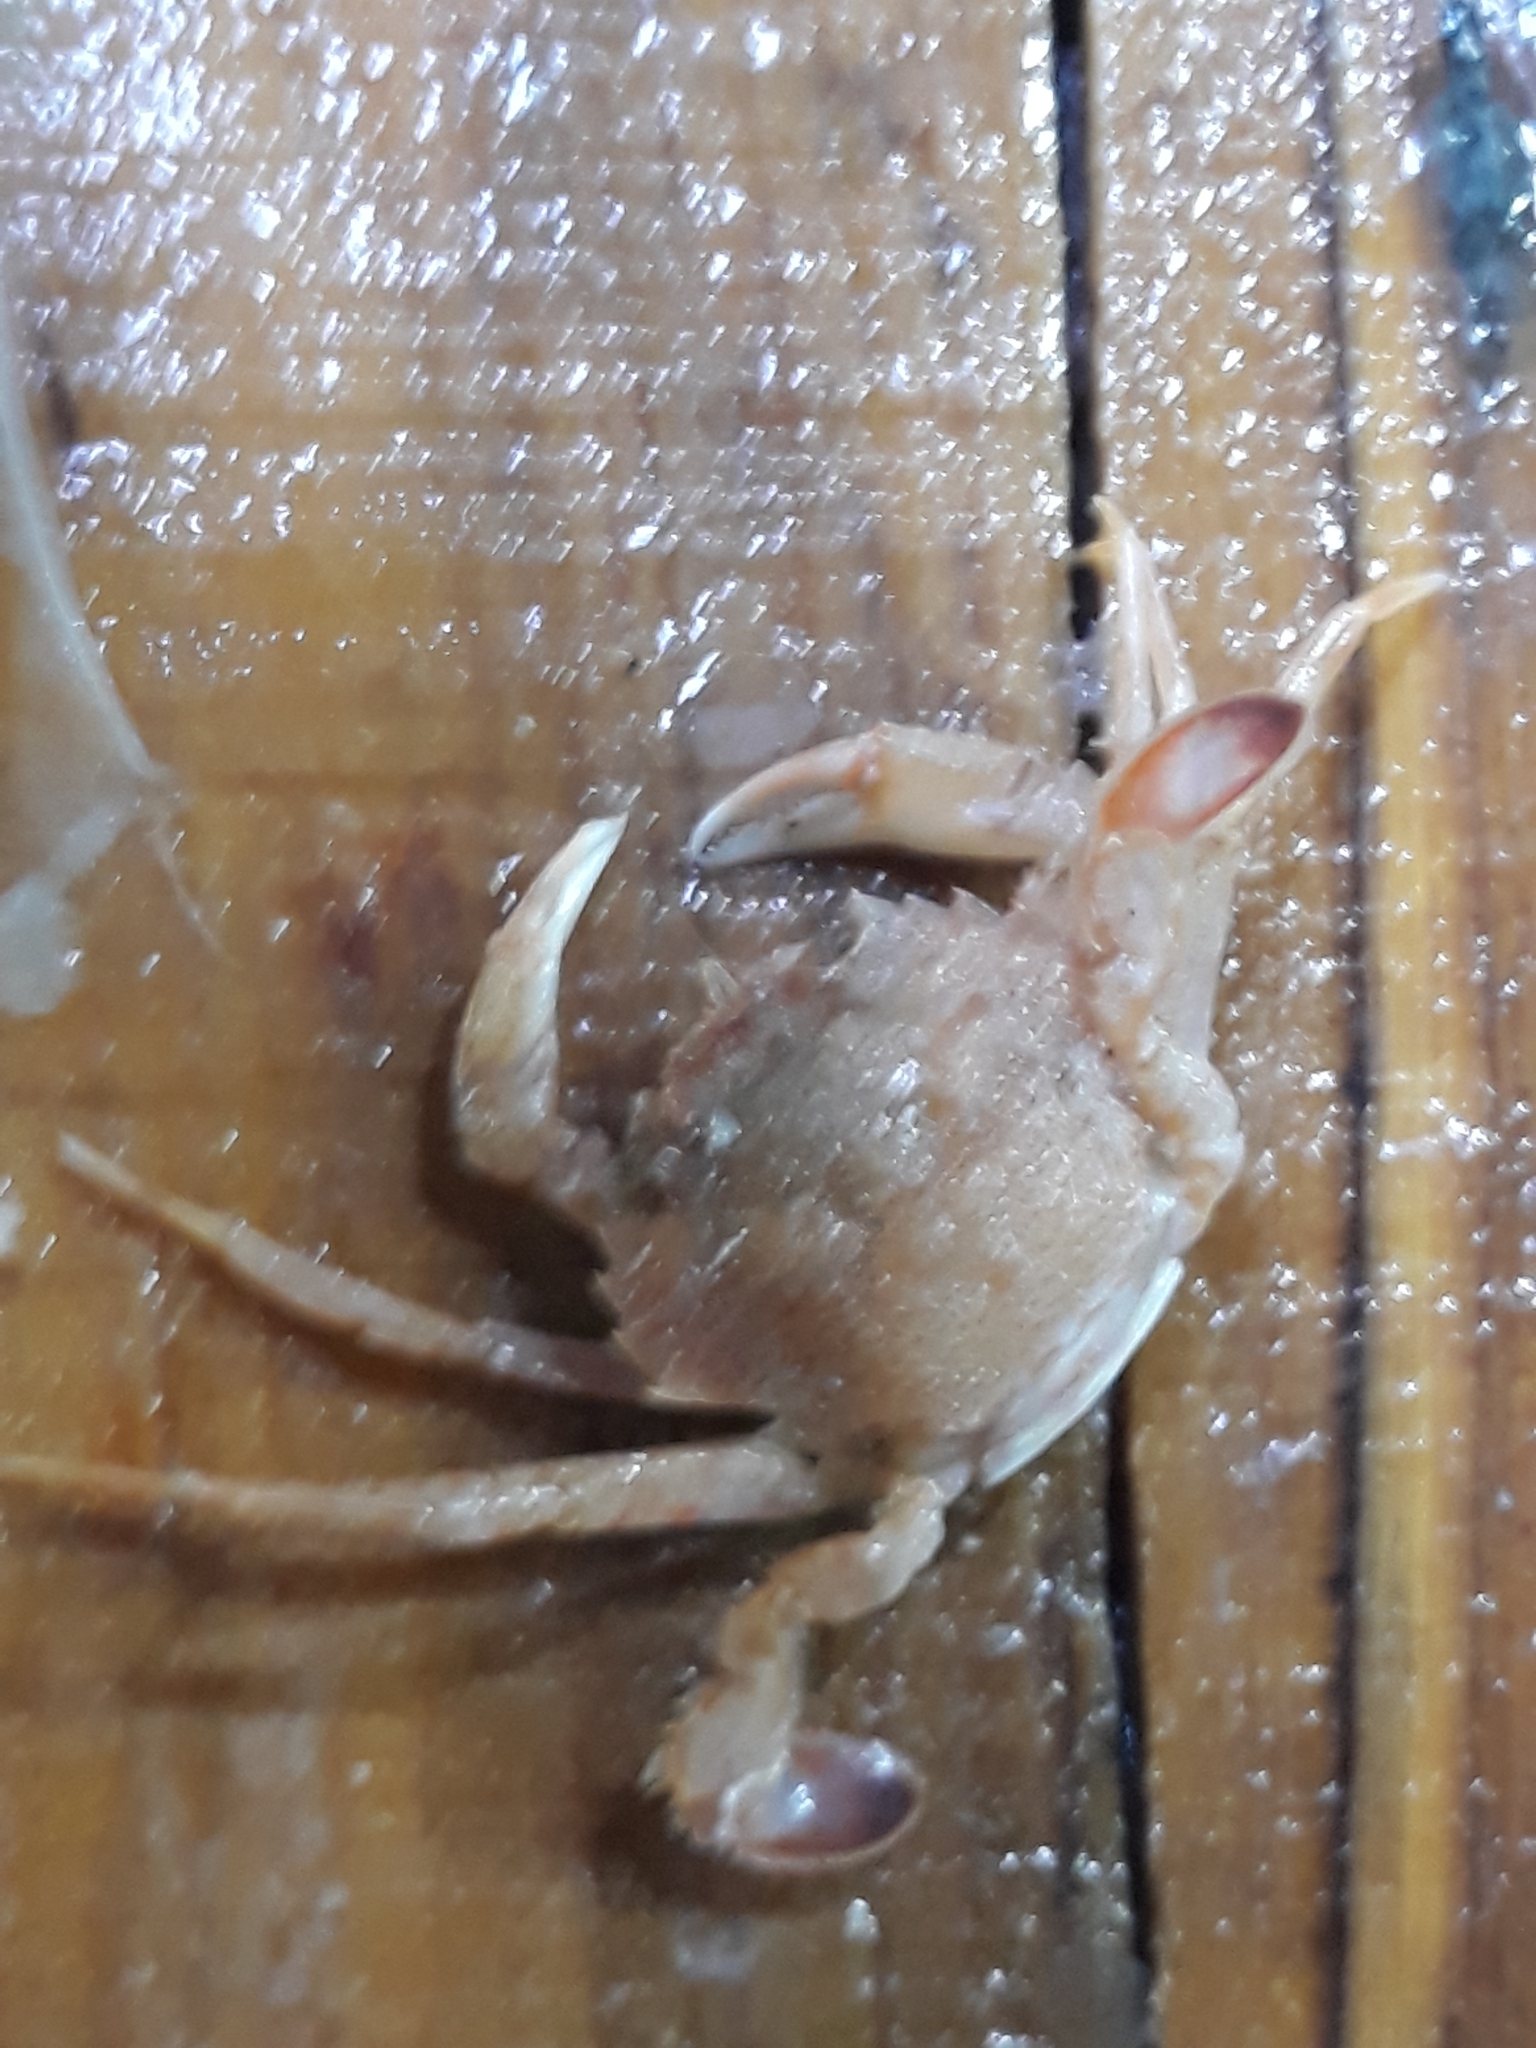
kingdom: Animalia
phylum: Arthropoda
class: Malacostraca
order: Decapoda
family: Polybiidae
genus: Liocarcinus
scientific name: Liocarcinus depurator
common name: Cleanser crab
